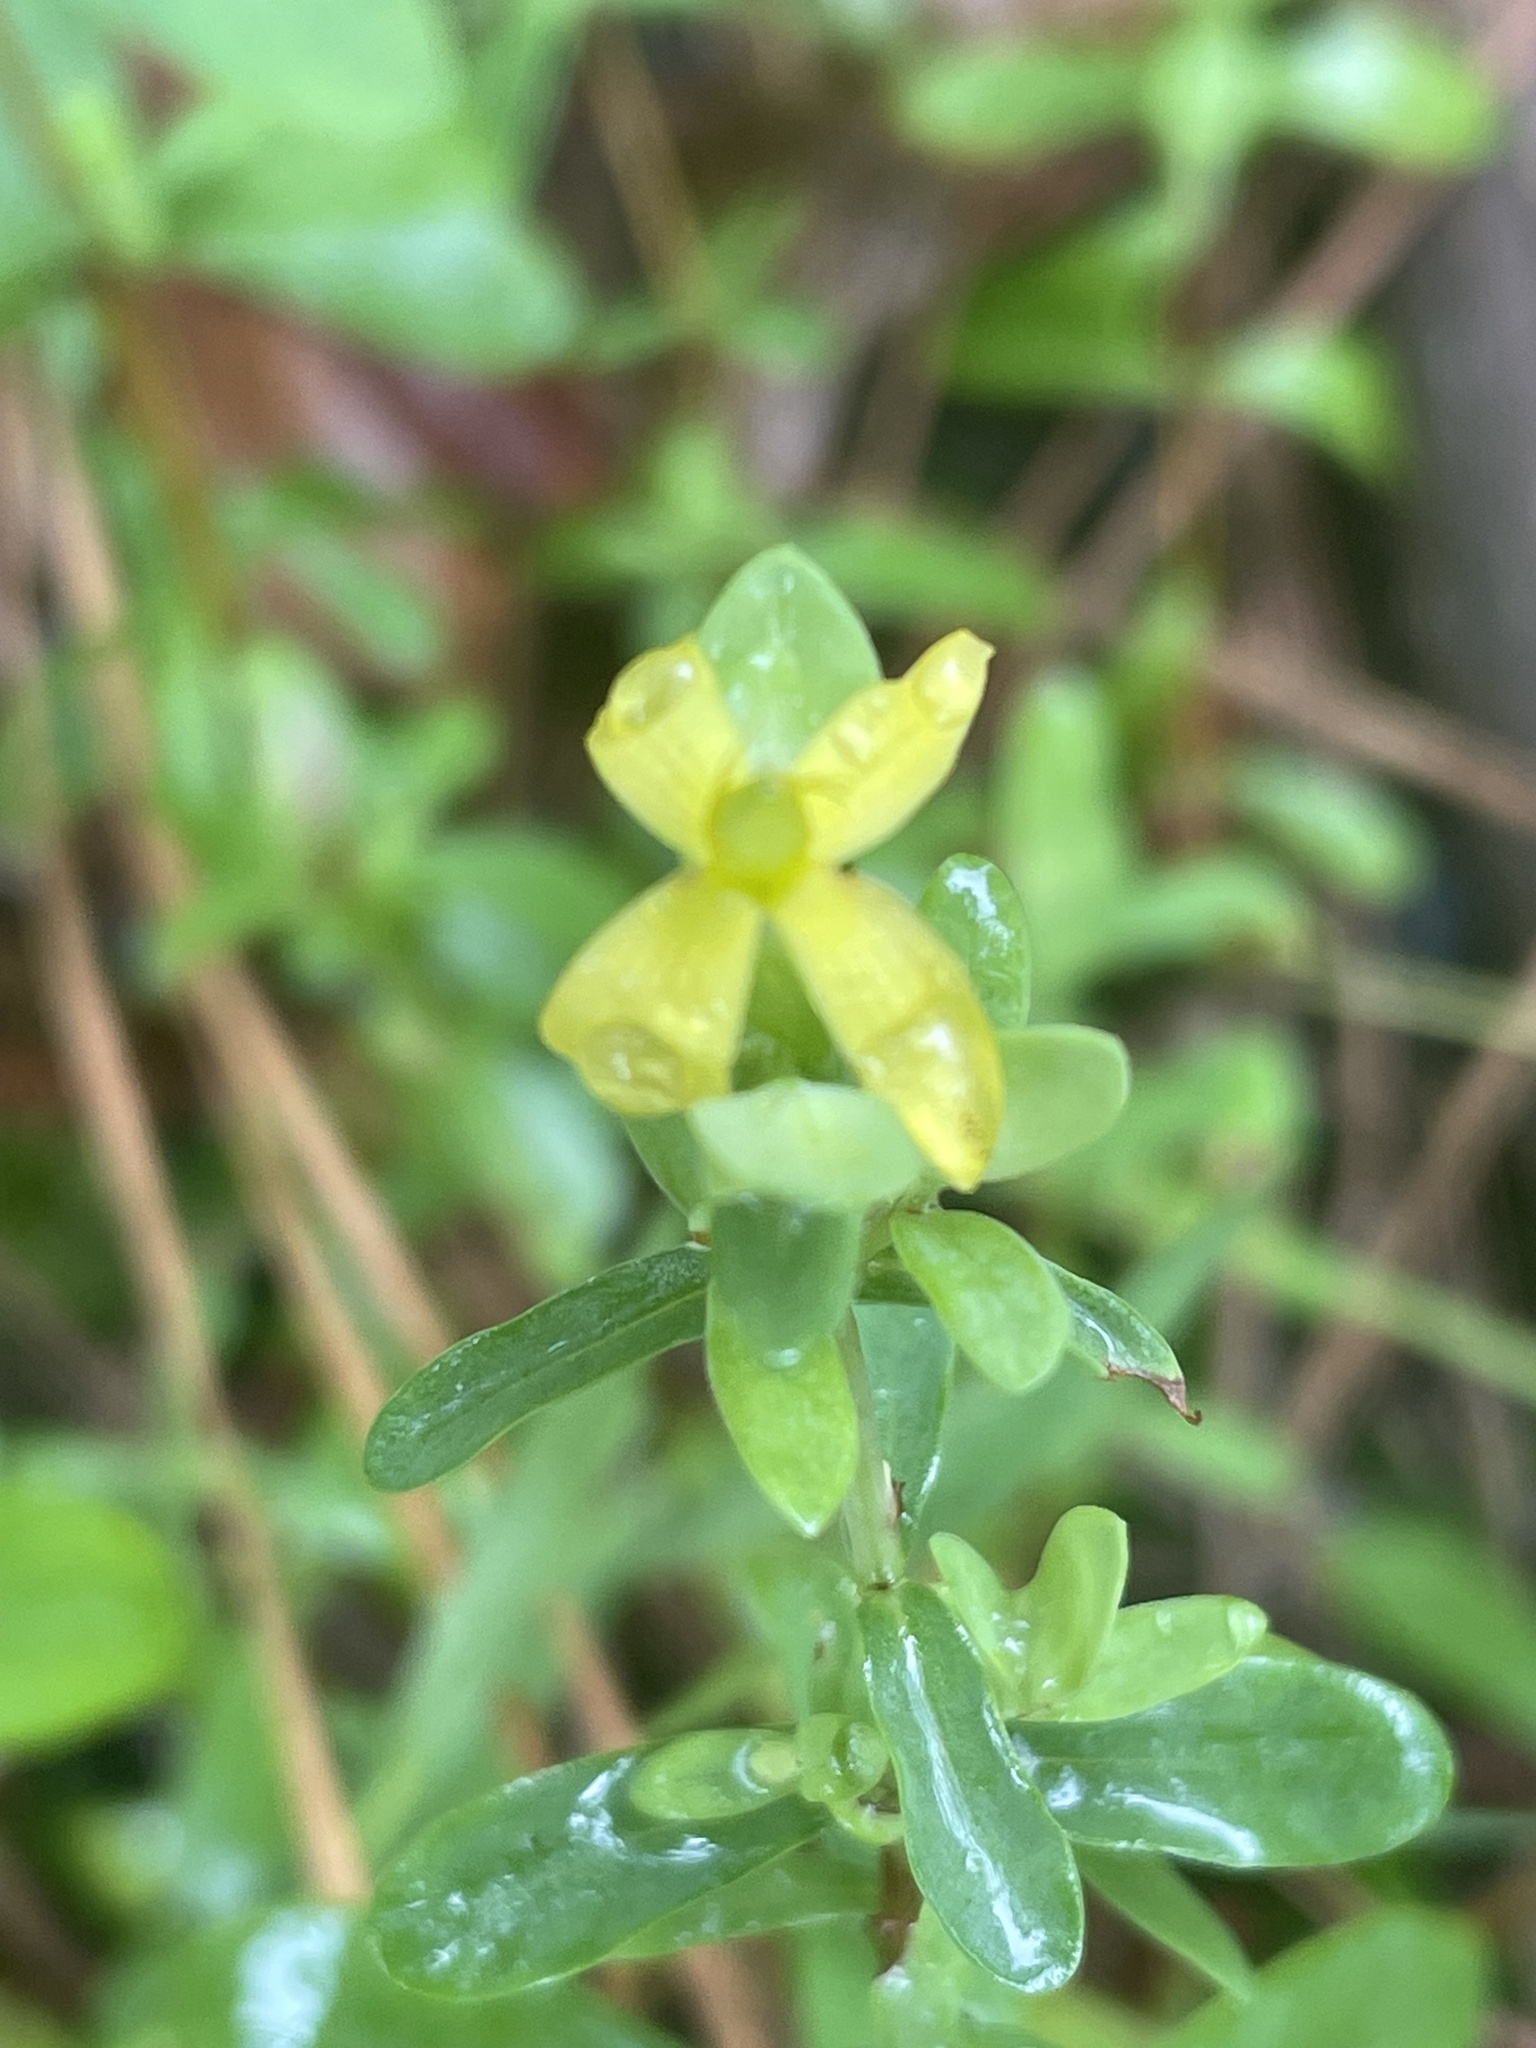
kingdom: Plantae
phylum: Tracheophyta
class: Magnoliopsida
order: Malpighiales
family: Hypericaceae
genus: Hypericum
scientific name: Hypericum hypericoides
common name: St. andrew's cross
